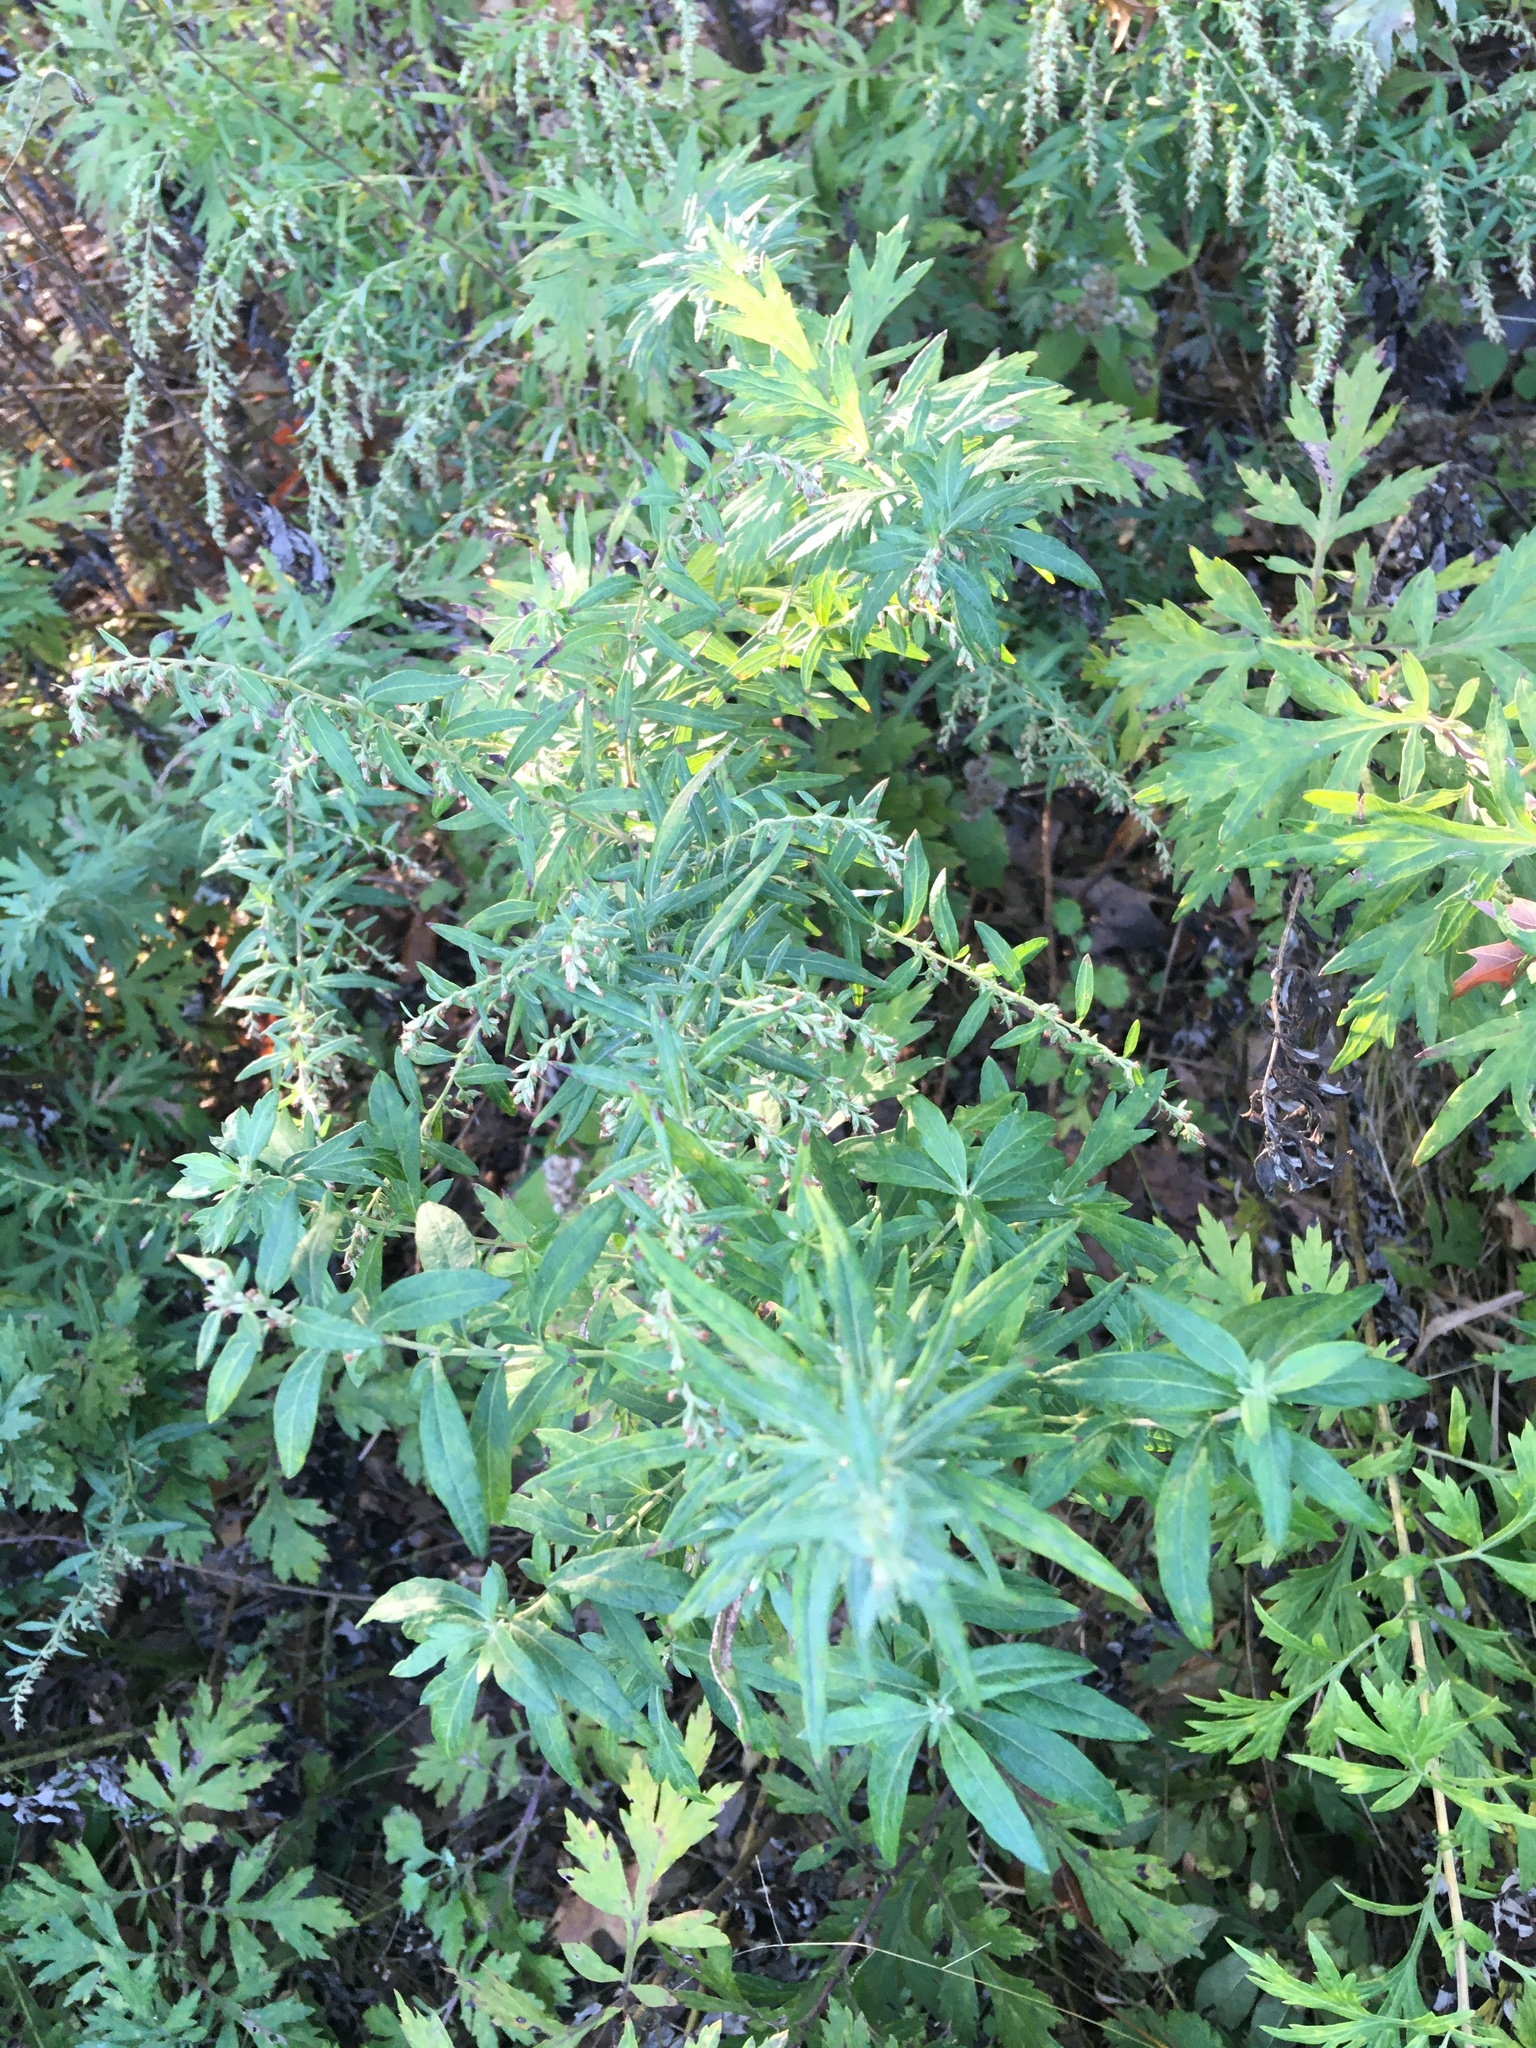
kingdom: Plantae
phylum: Tracheophyta
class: Magnoliopsida
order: Asterales
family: Asteraceae
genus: Artemisia
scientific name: Artemisia vulgaris
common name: Mugwort
